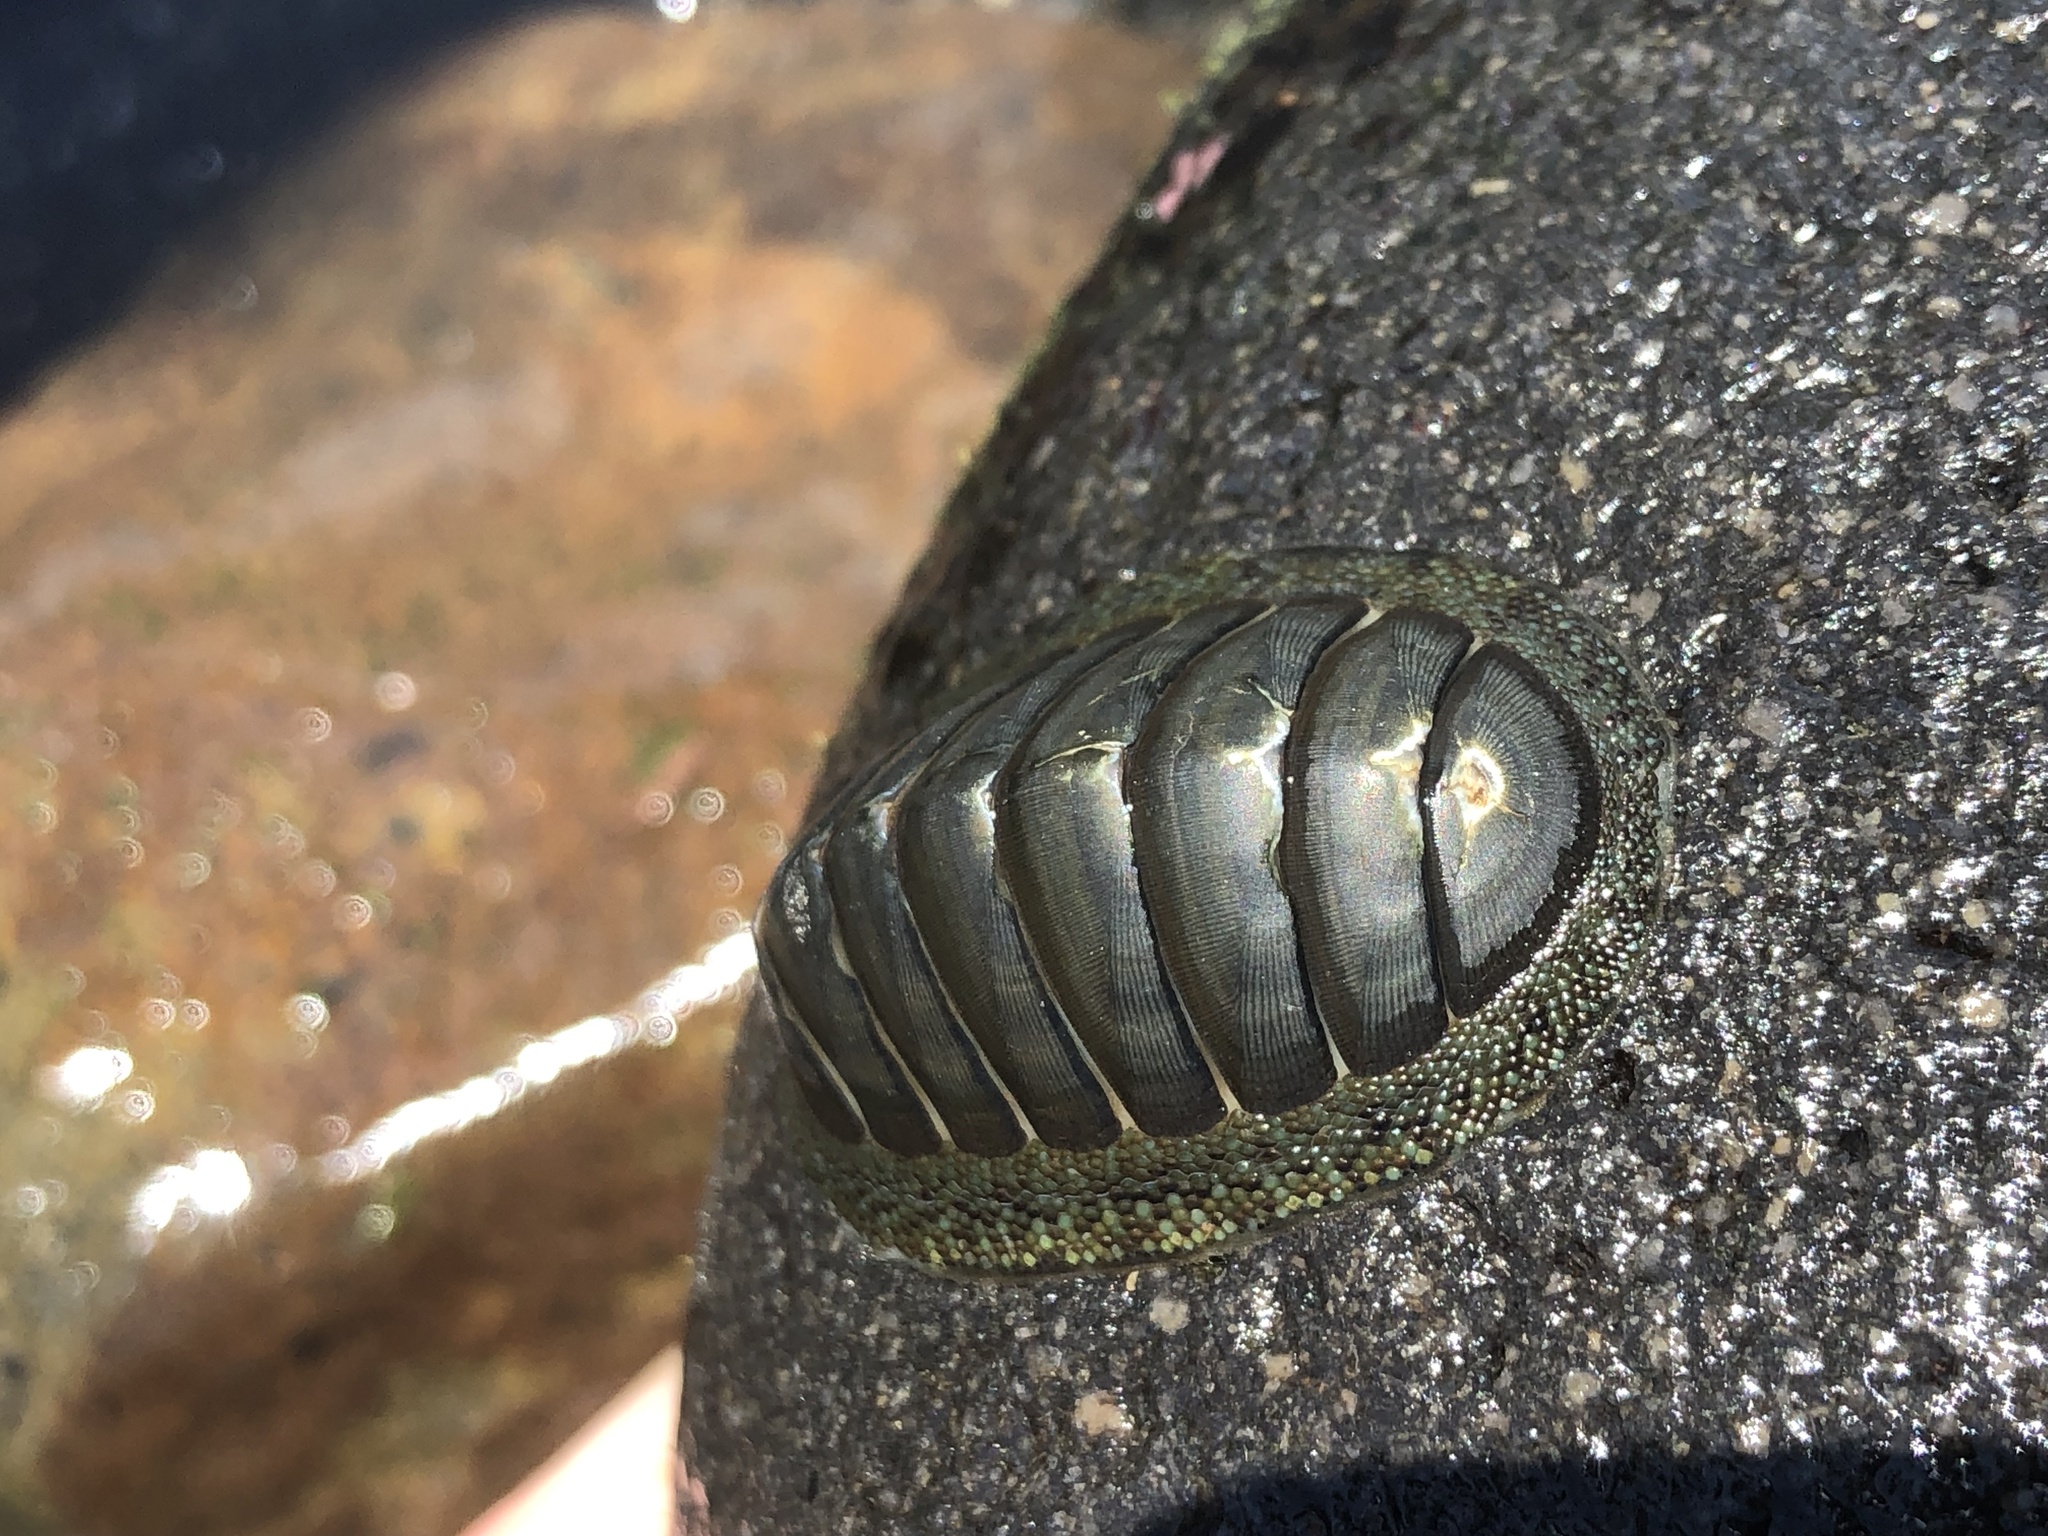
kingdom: Animalia
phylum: Mollusca
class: Polyplacophora
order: Chitonida
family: Chitonidae
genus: Chiton
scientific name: Chiton glaucus
